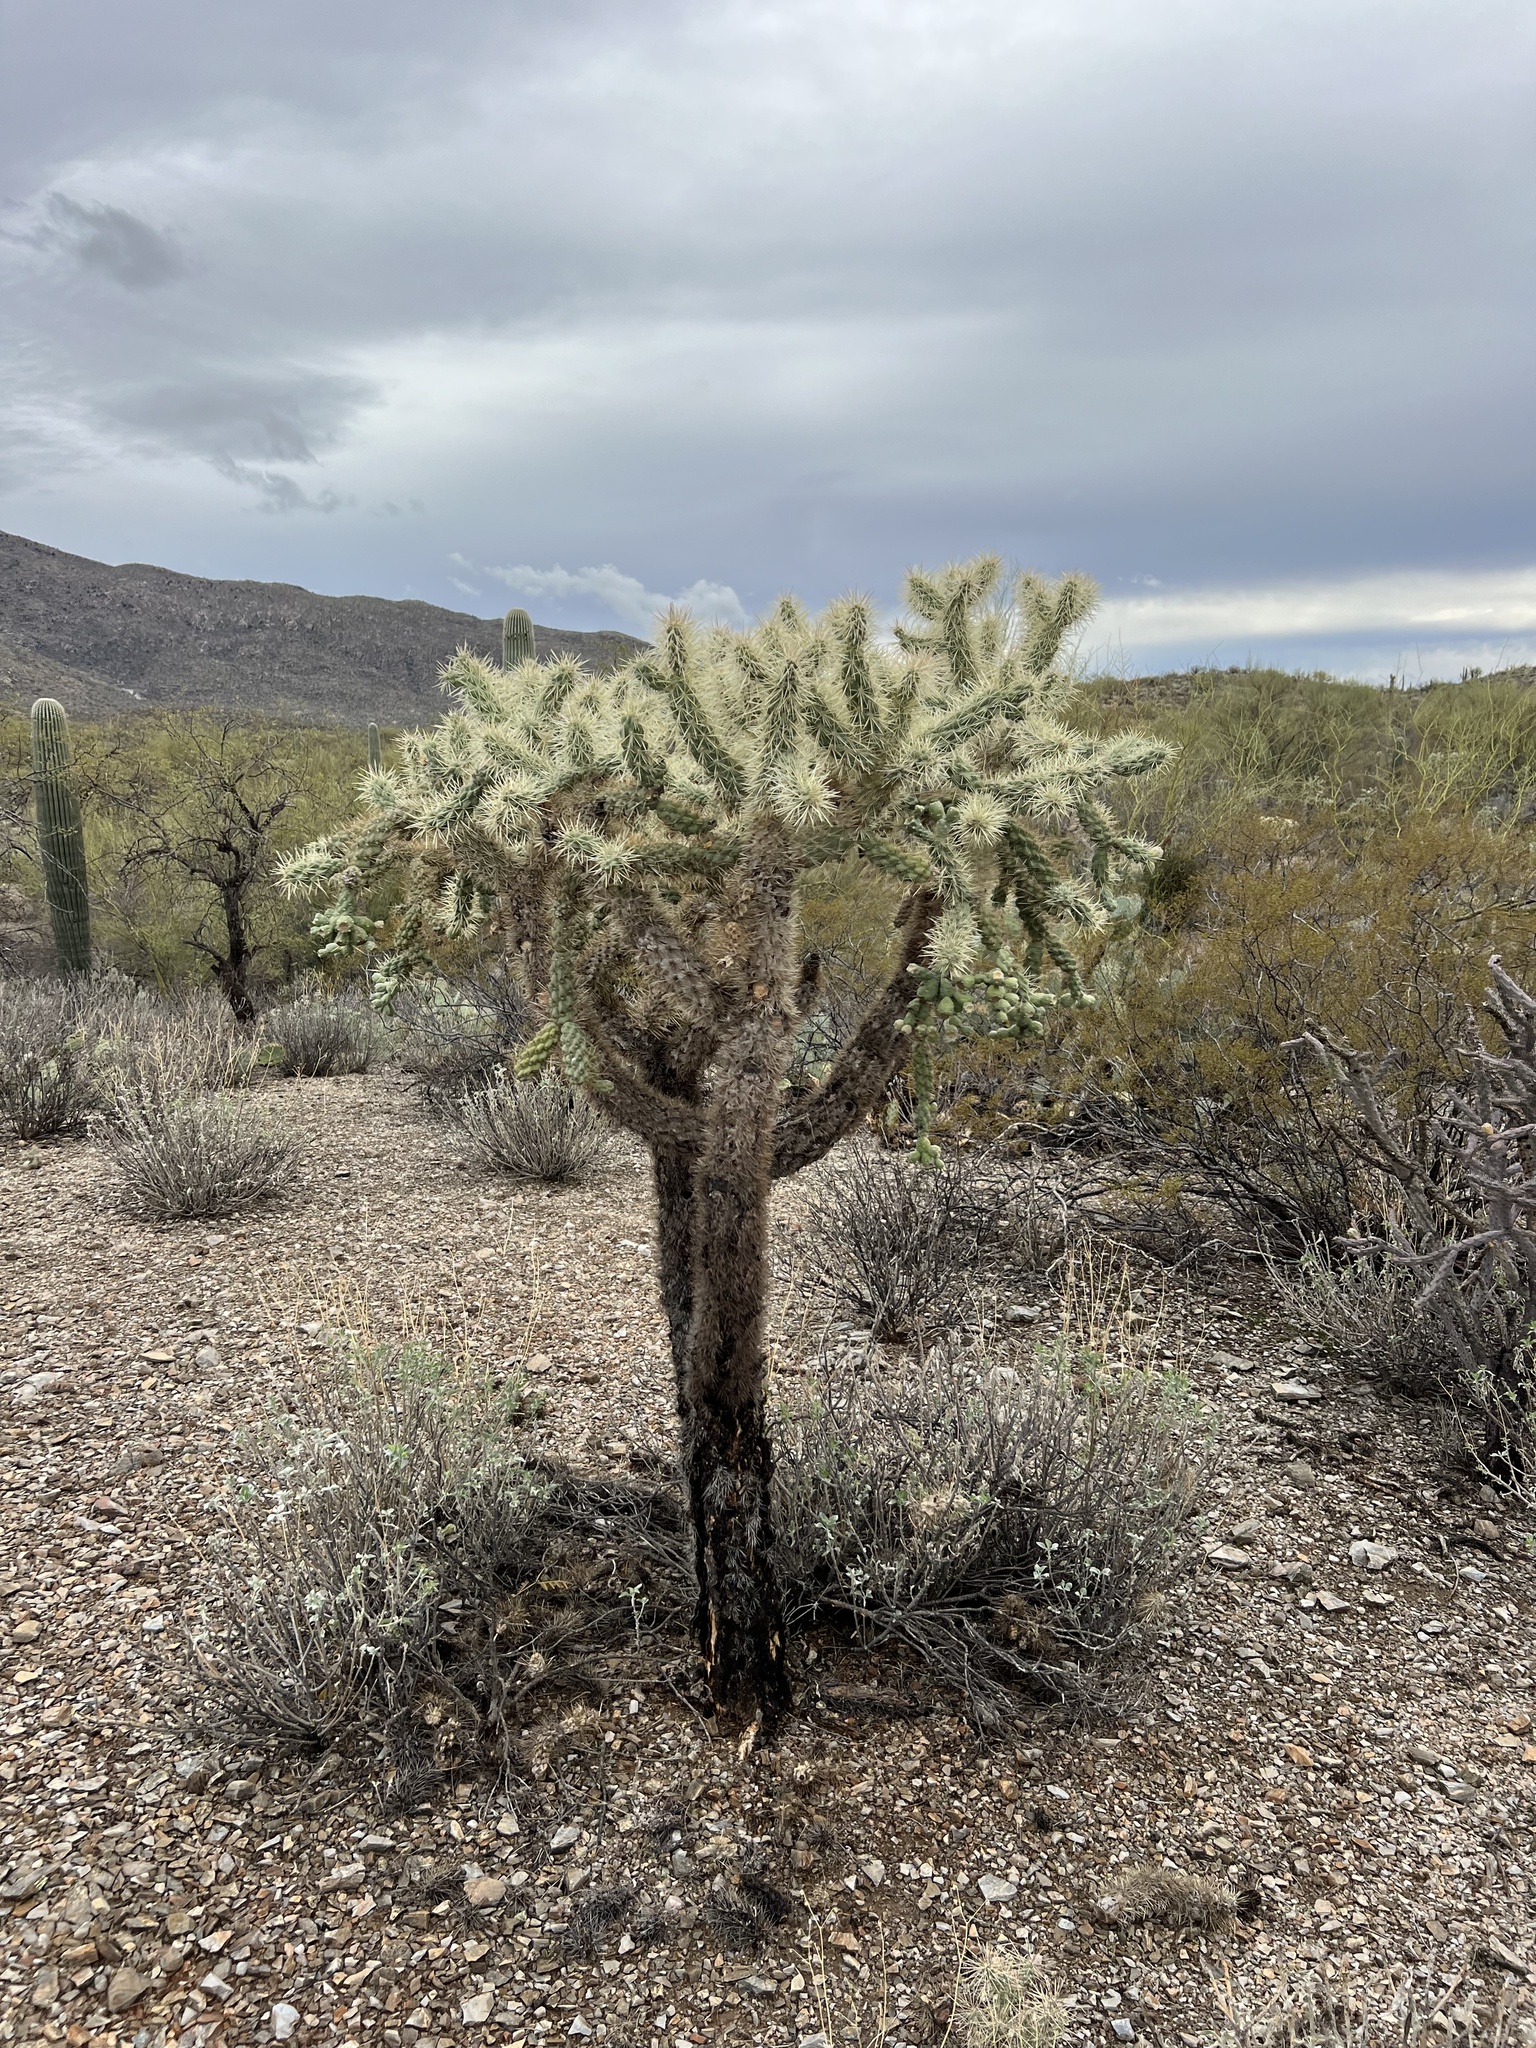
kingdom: Plantae
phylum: Tracheophyta
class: Magnoliopsida
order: Caryophyllales
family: Cactaceae
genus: Cylindropuntia
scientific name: Cylindropuntia fulgida
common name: Jumping cholla
